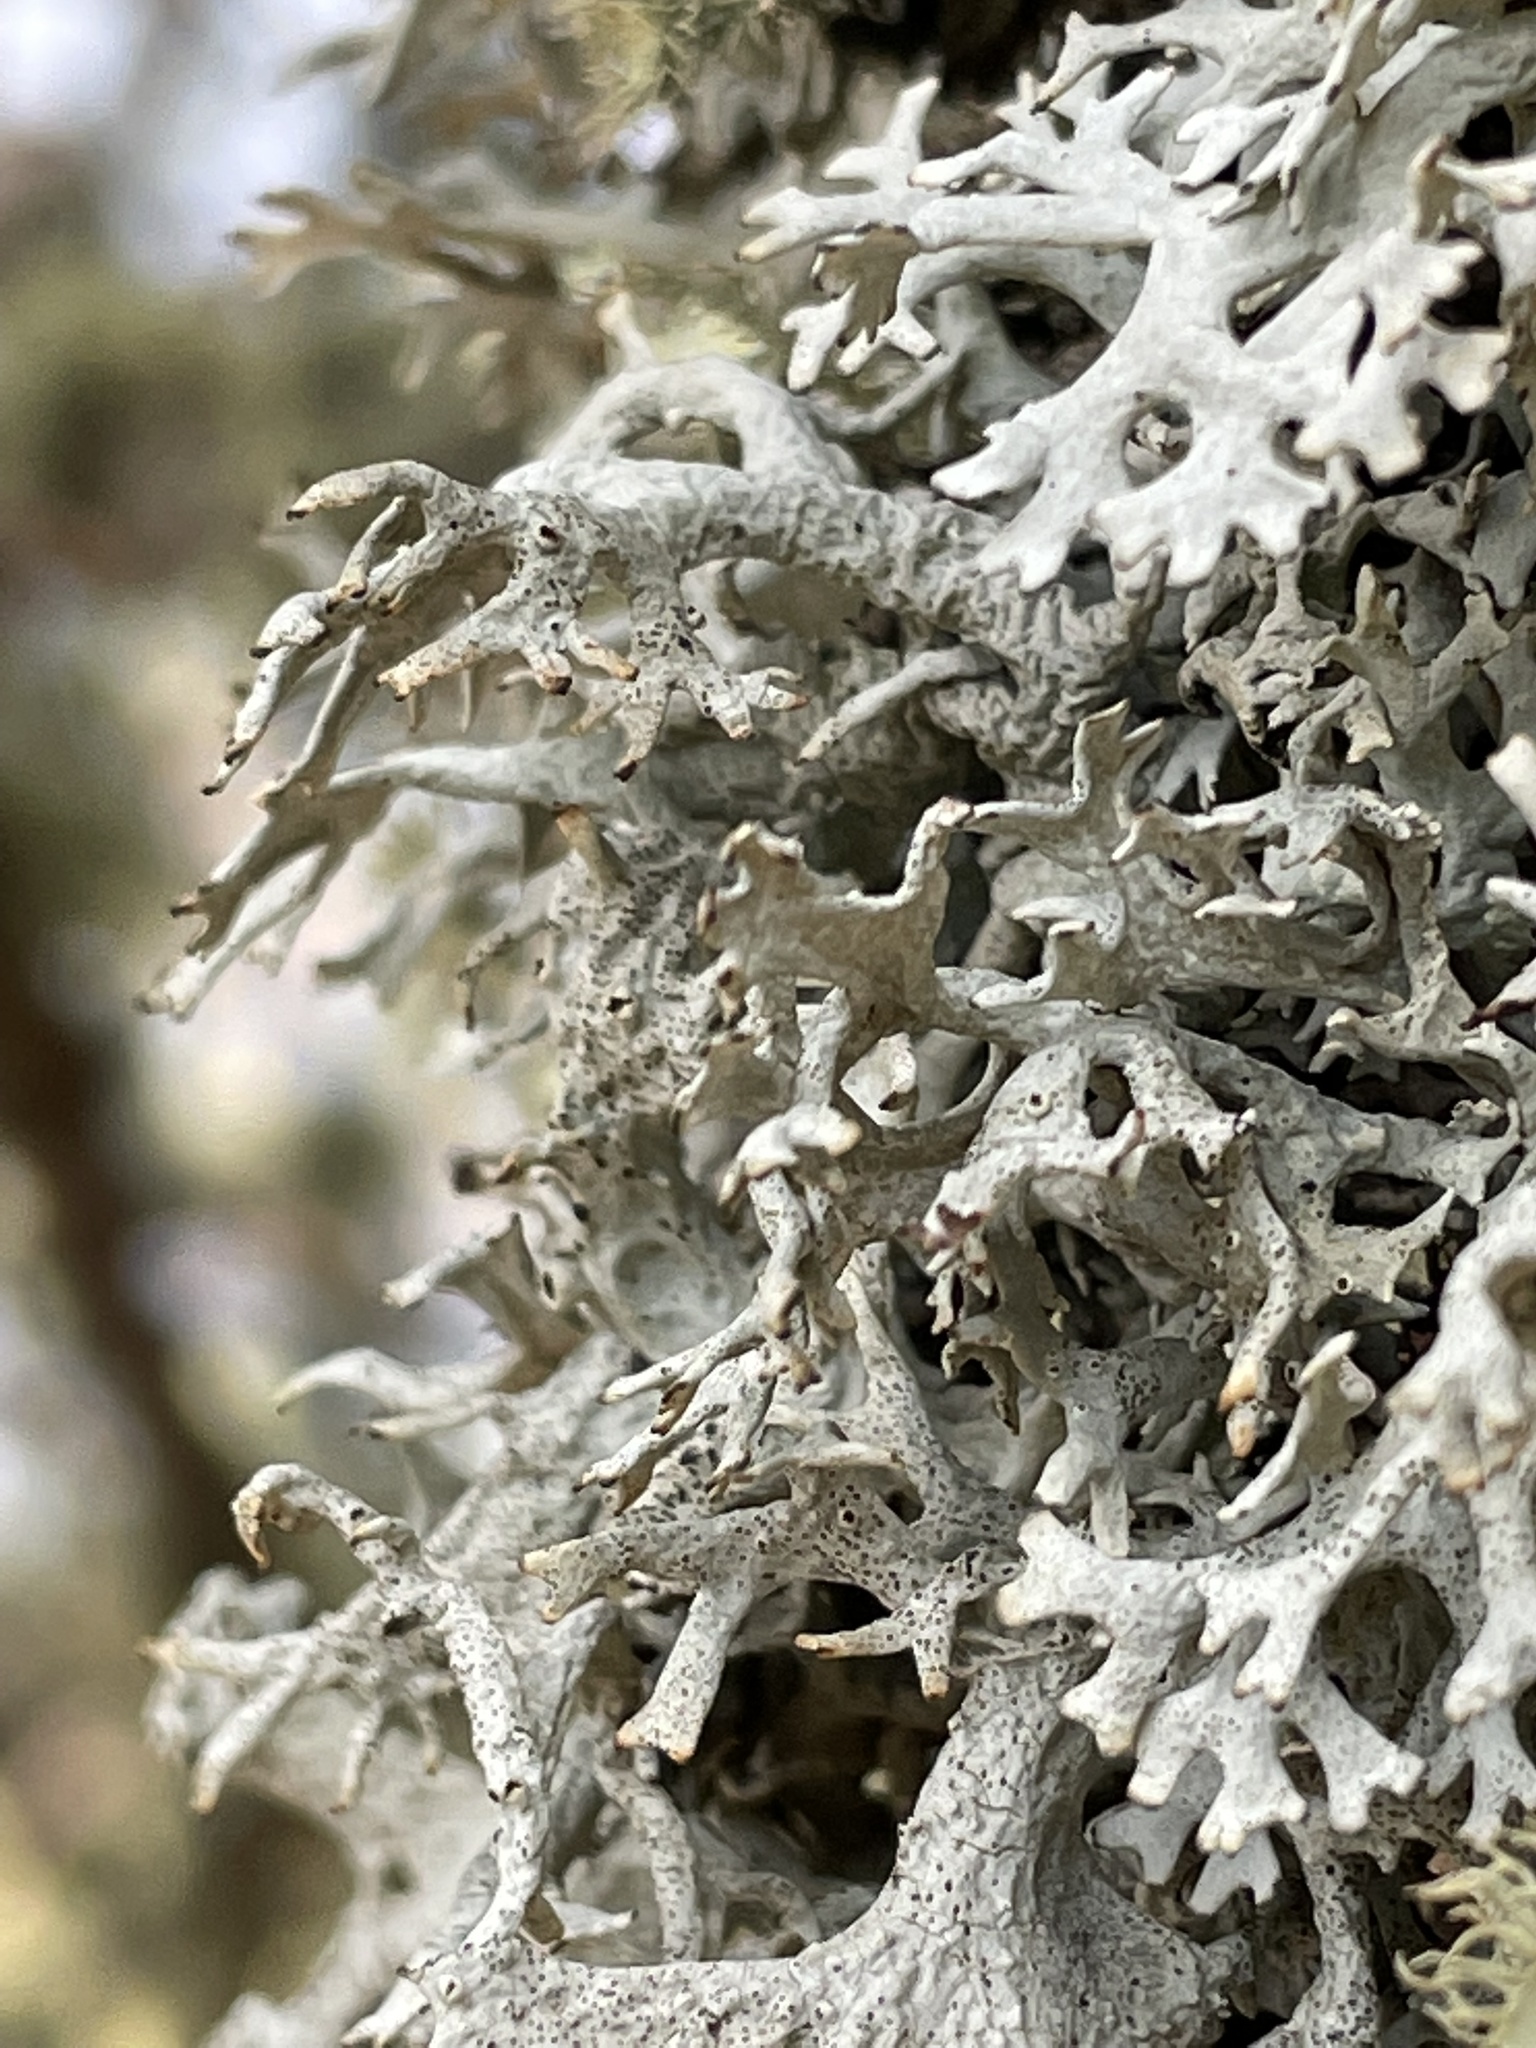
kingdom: Fungi
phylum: Ascomycota
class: Lecanoromycetes
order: Lecanorales
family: Parmeliaceae
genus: Pseudevernia
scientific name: Pseudevernia consocians
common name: Common antler lichen
